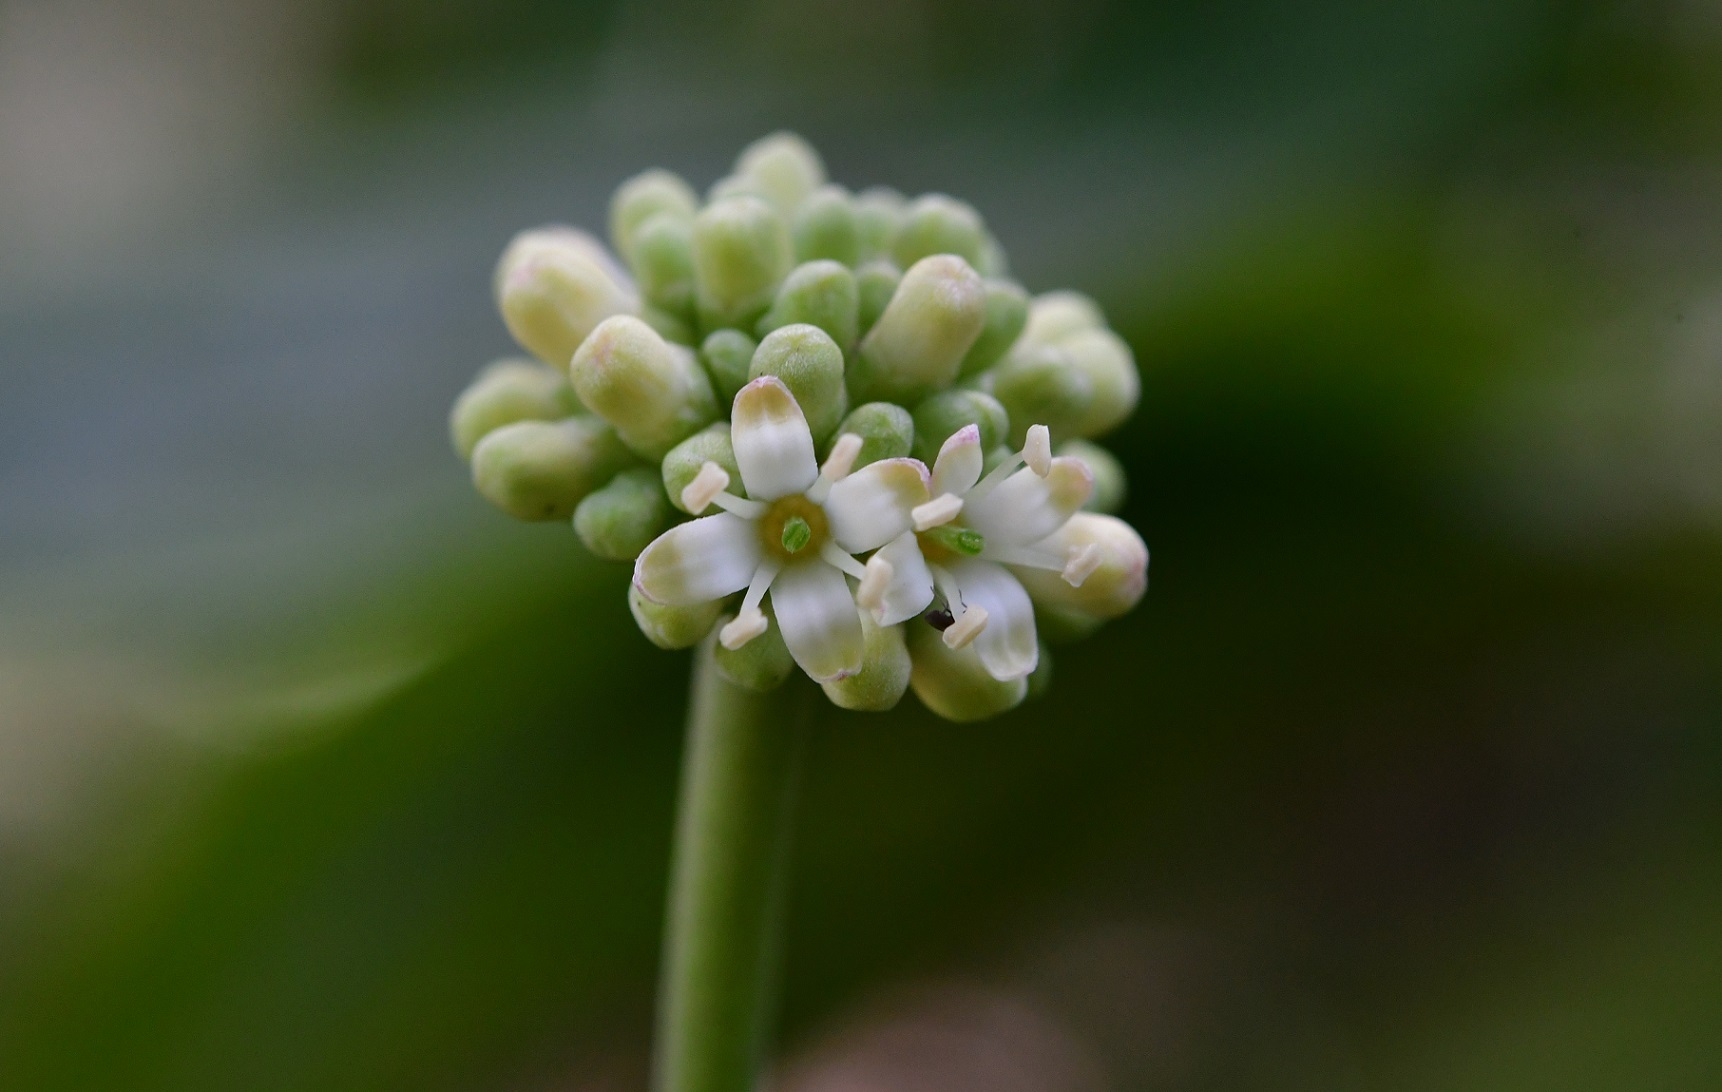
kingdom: Plantae
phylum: Tracheophyta
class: Magnoliopsida
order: Cornales
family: Cornaceae
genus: Cornus
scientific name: Cornus disciflora
